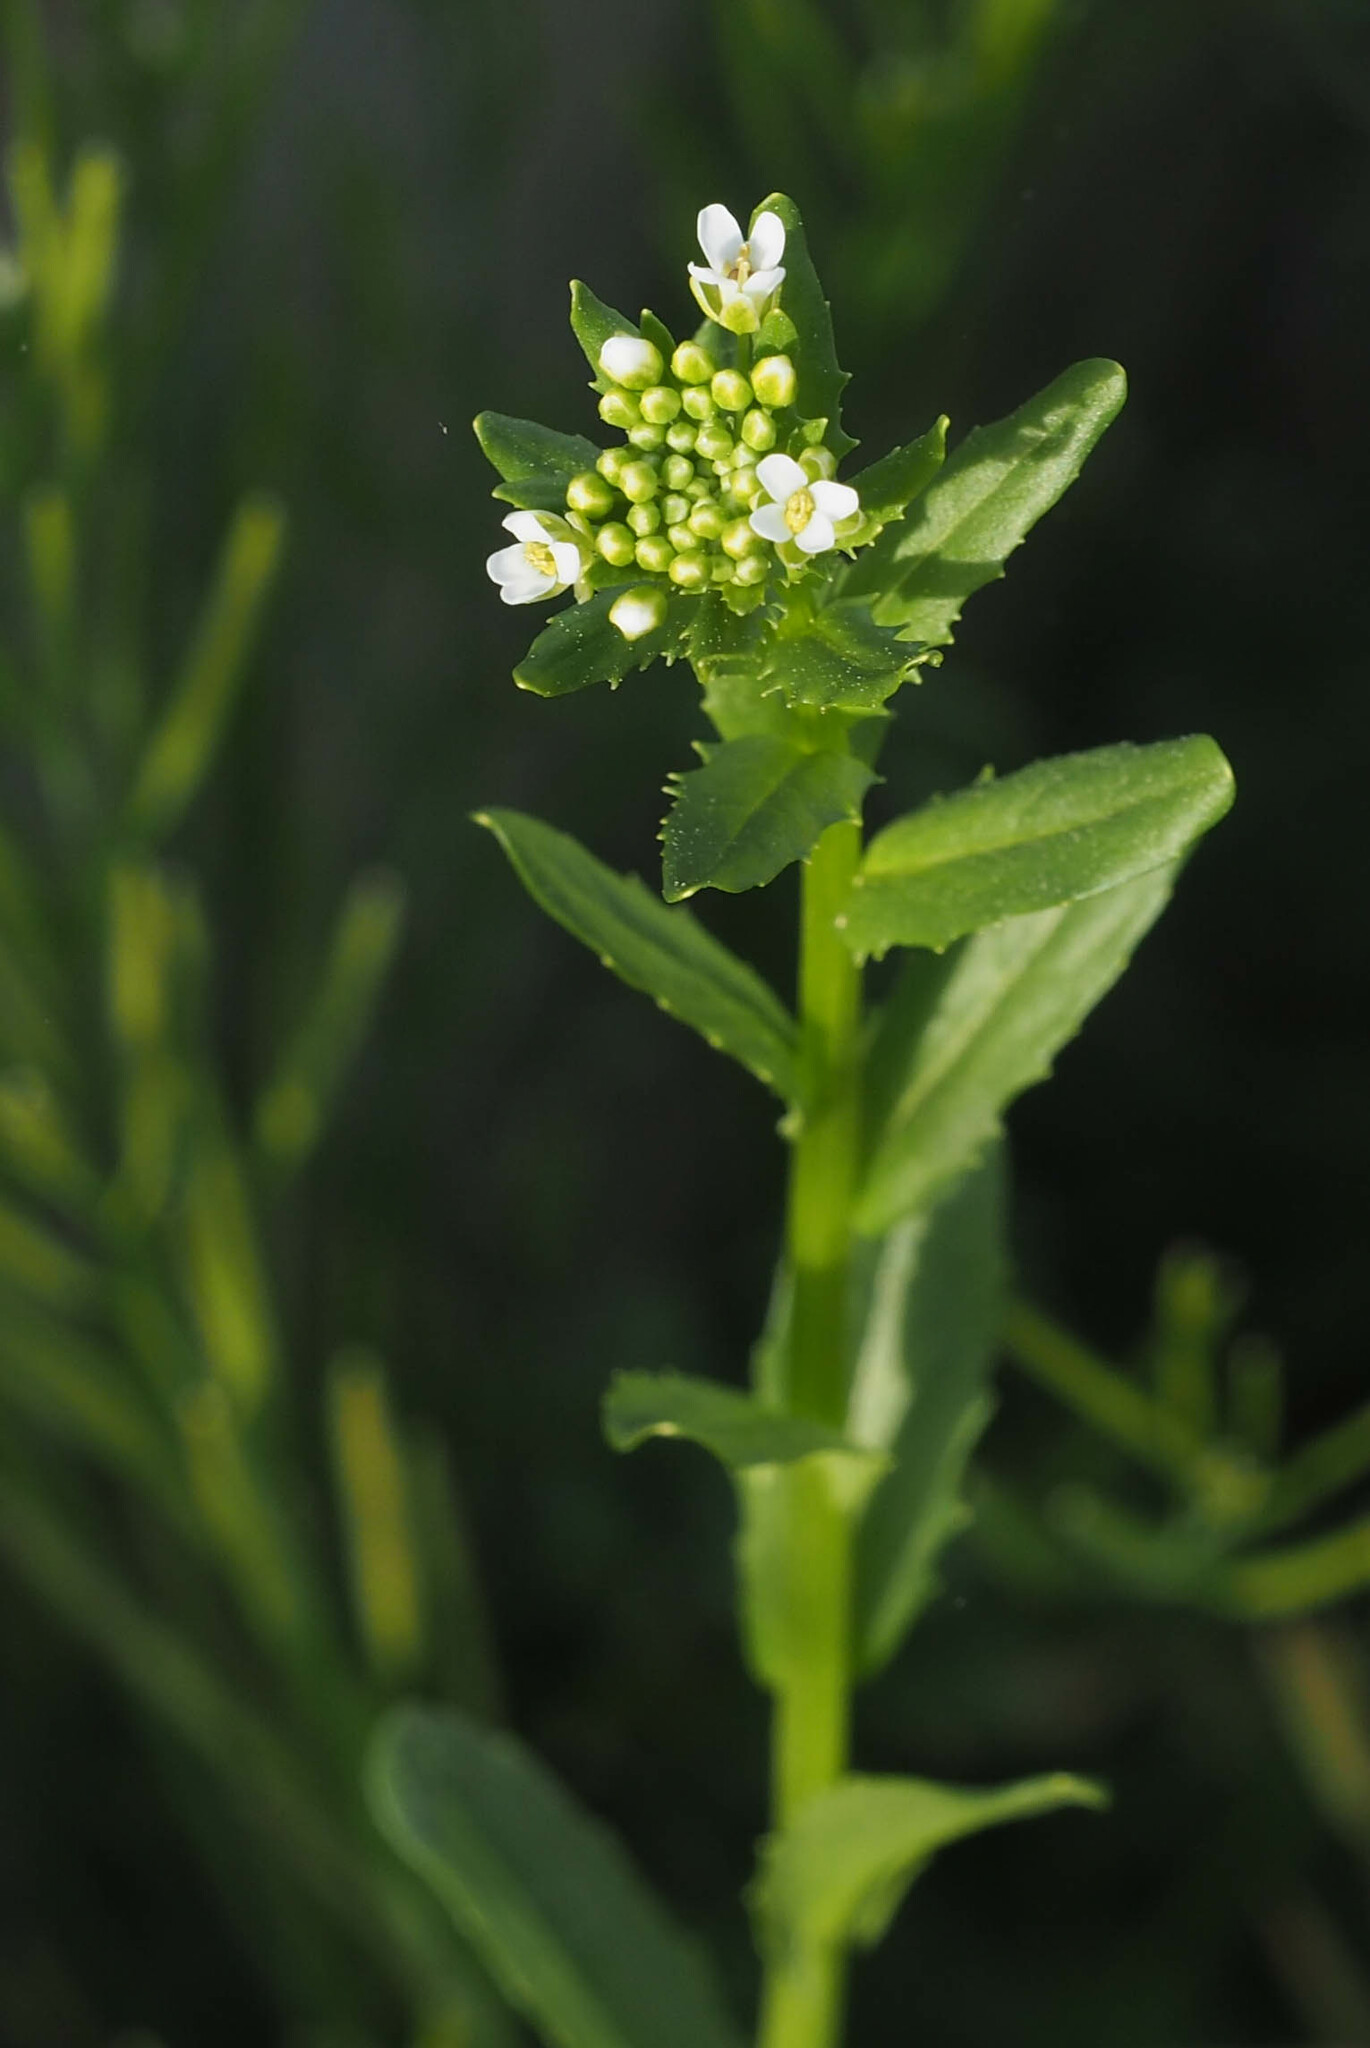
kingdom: Plantae
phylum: Tracheophyta
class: Magnoliopsida
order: Brassicales
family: Brassicaceae
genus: Thlaspi
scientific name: Thlaspi arvense
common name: Field pennycress
